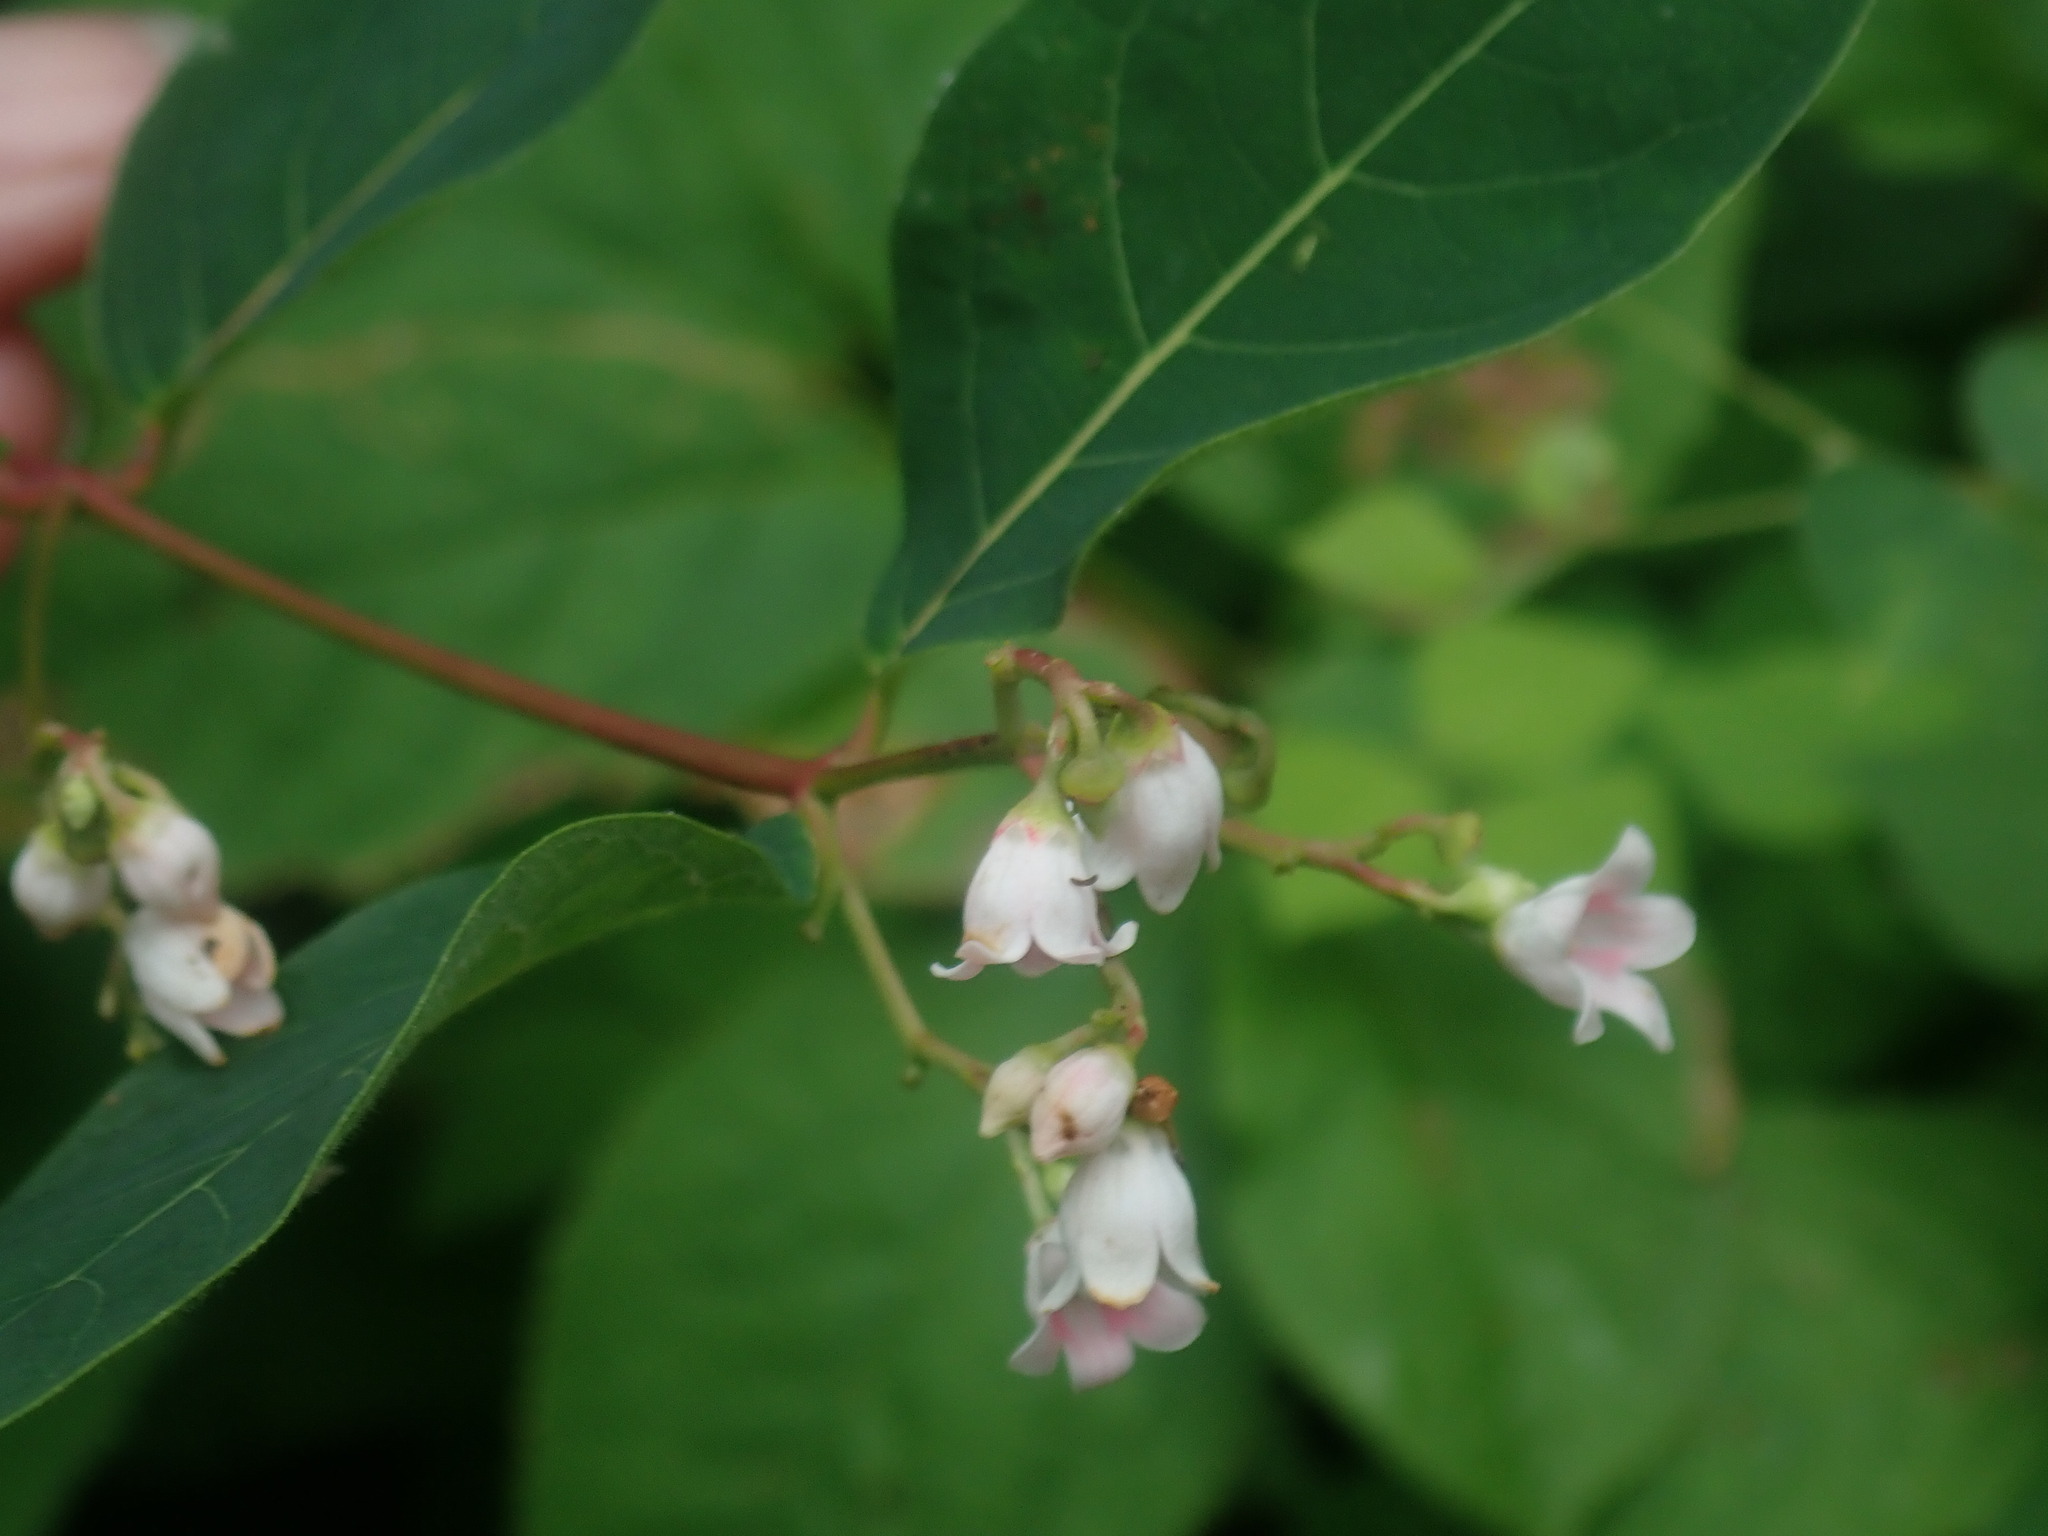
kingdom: Plantae
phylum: Tracheophyta
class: Magnoliopsida
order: Gentianales
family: Apocynaceae
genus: Apocynum
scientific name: Apocynum androsaemifolium
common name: Spreading dogbane
